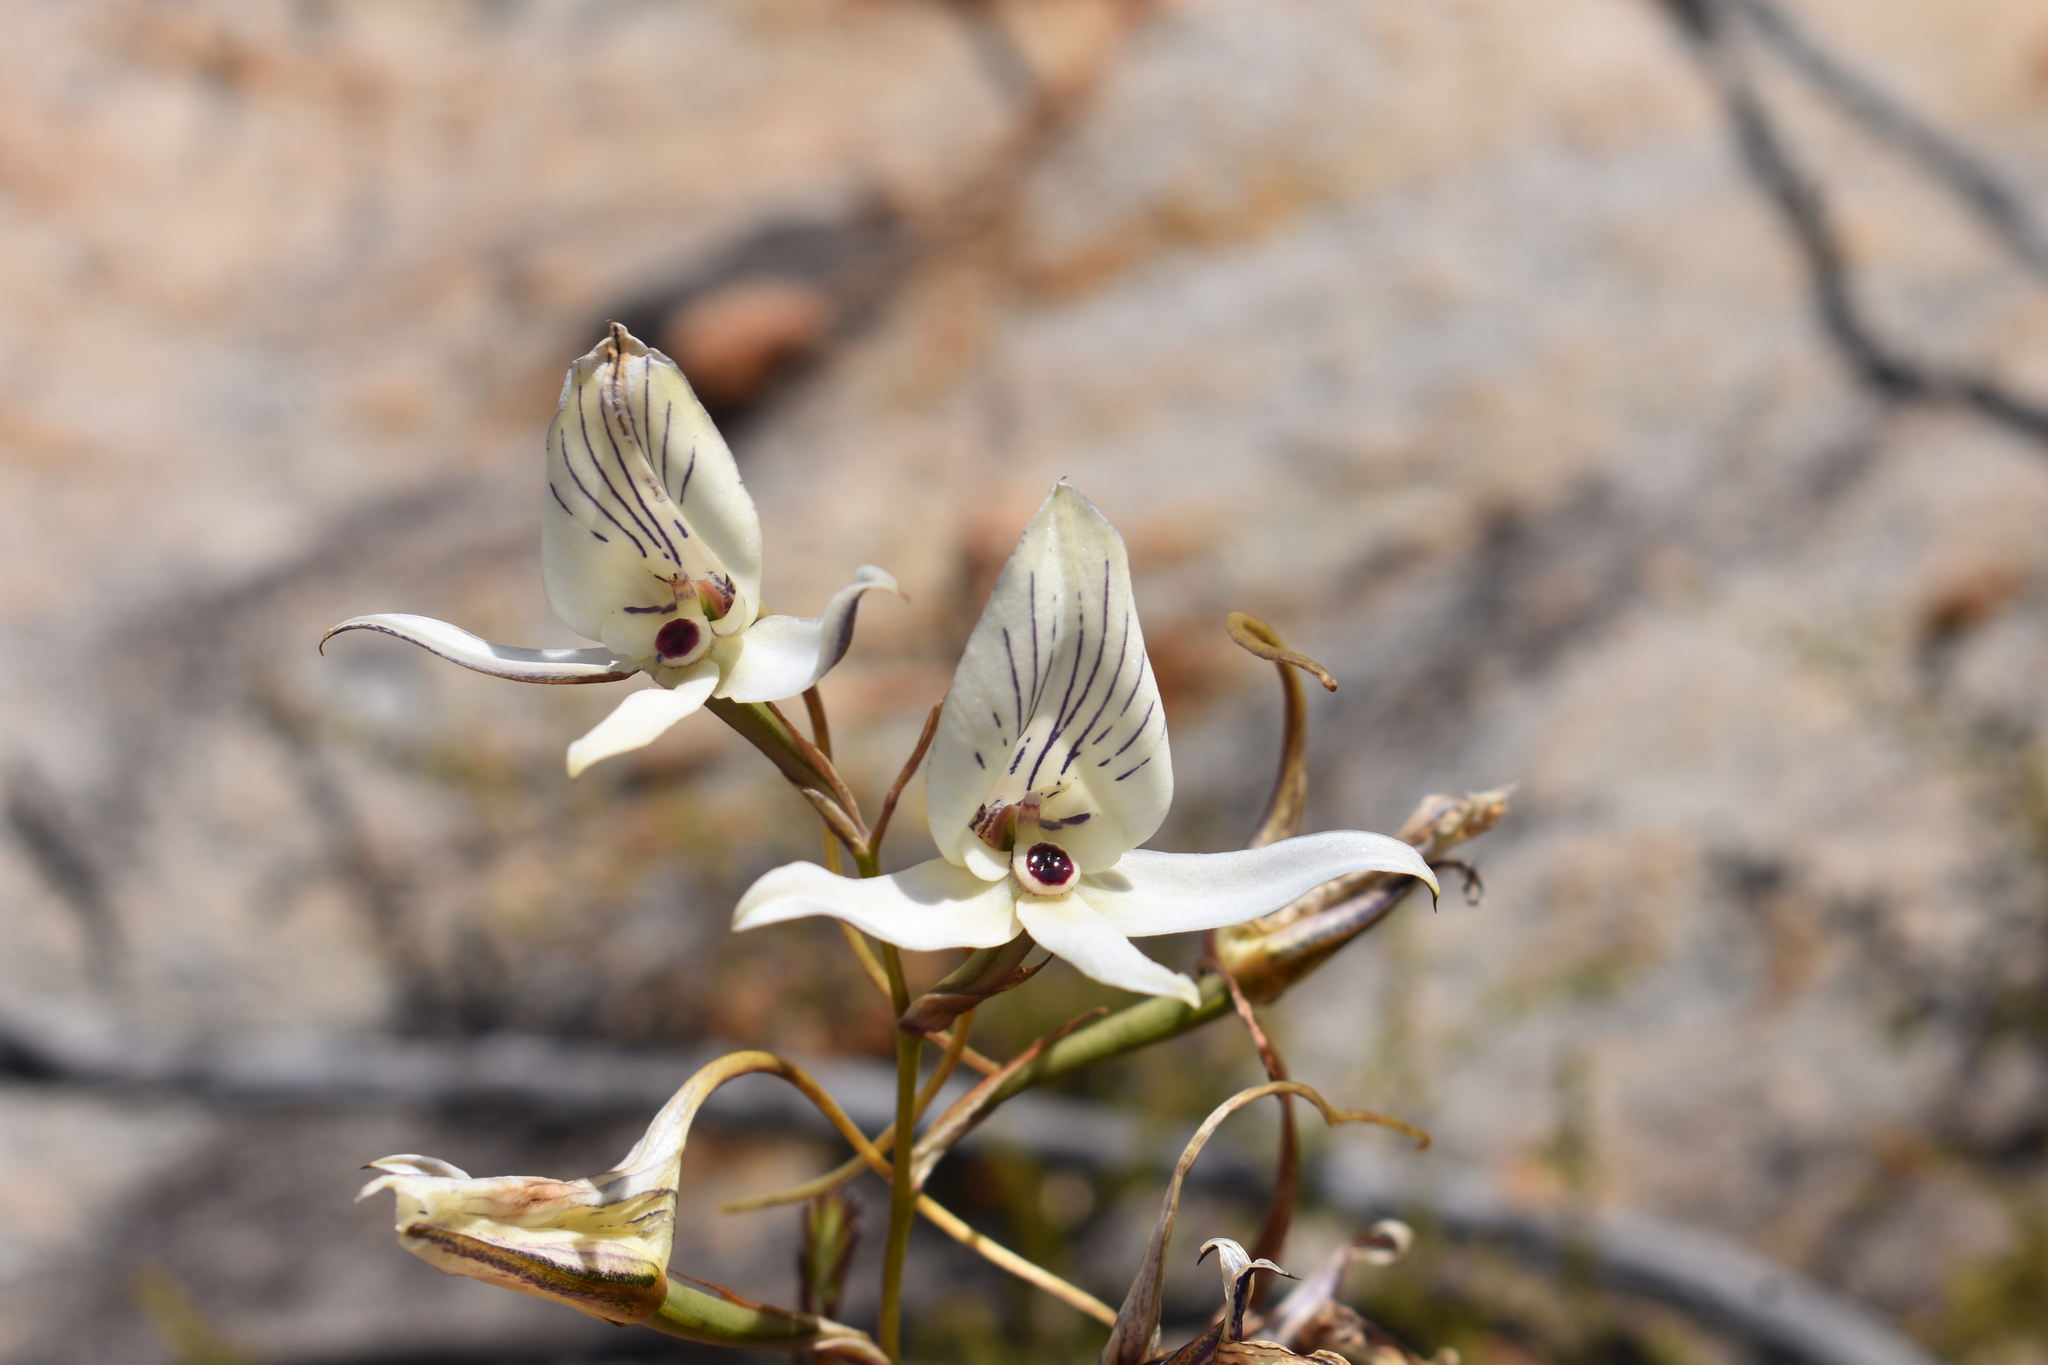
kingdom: Plantae
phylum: Tracheophyta
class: Liliopsida
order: Asparagales
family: Orchidaceae
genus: Disa
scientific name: Disa schlechteriana
